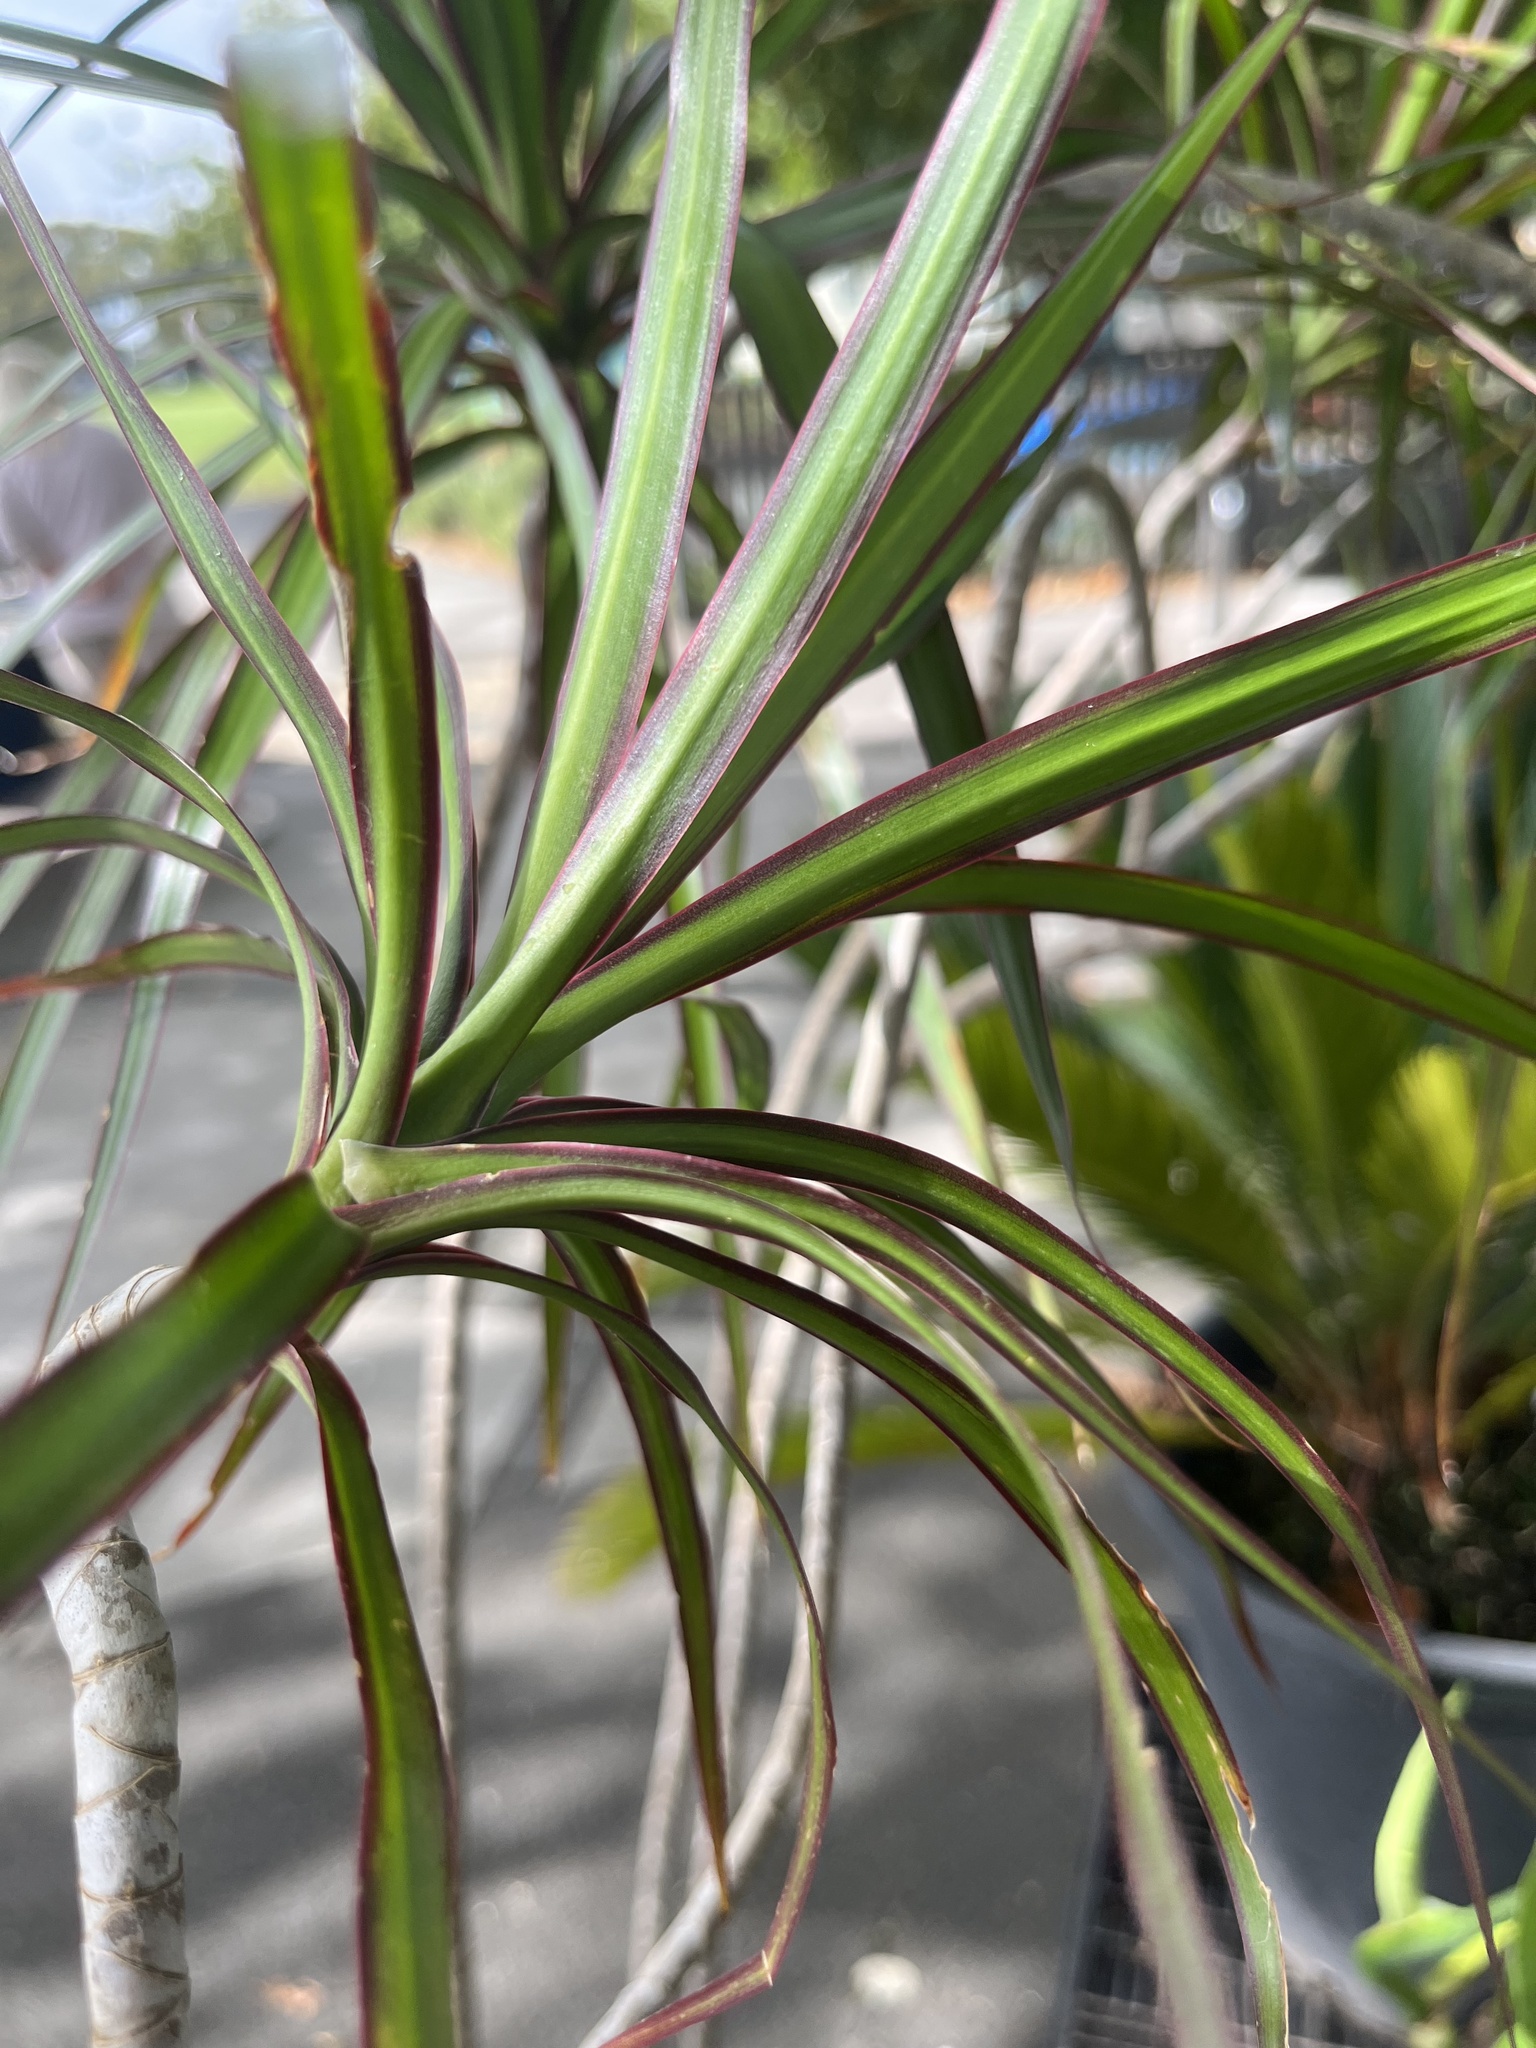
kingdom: Plantae
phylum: Tracheophyta
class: Liliopsida
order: Asparagales
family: Asparagaceae
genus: Dracaena
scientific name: Dracaena reflexa
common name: Song-of-india
